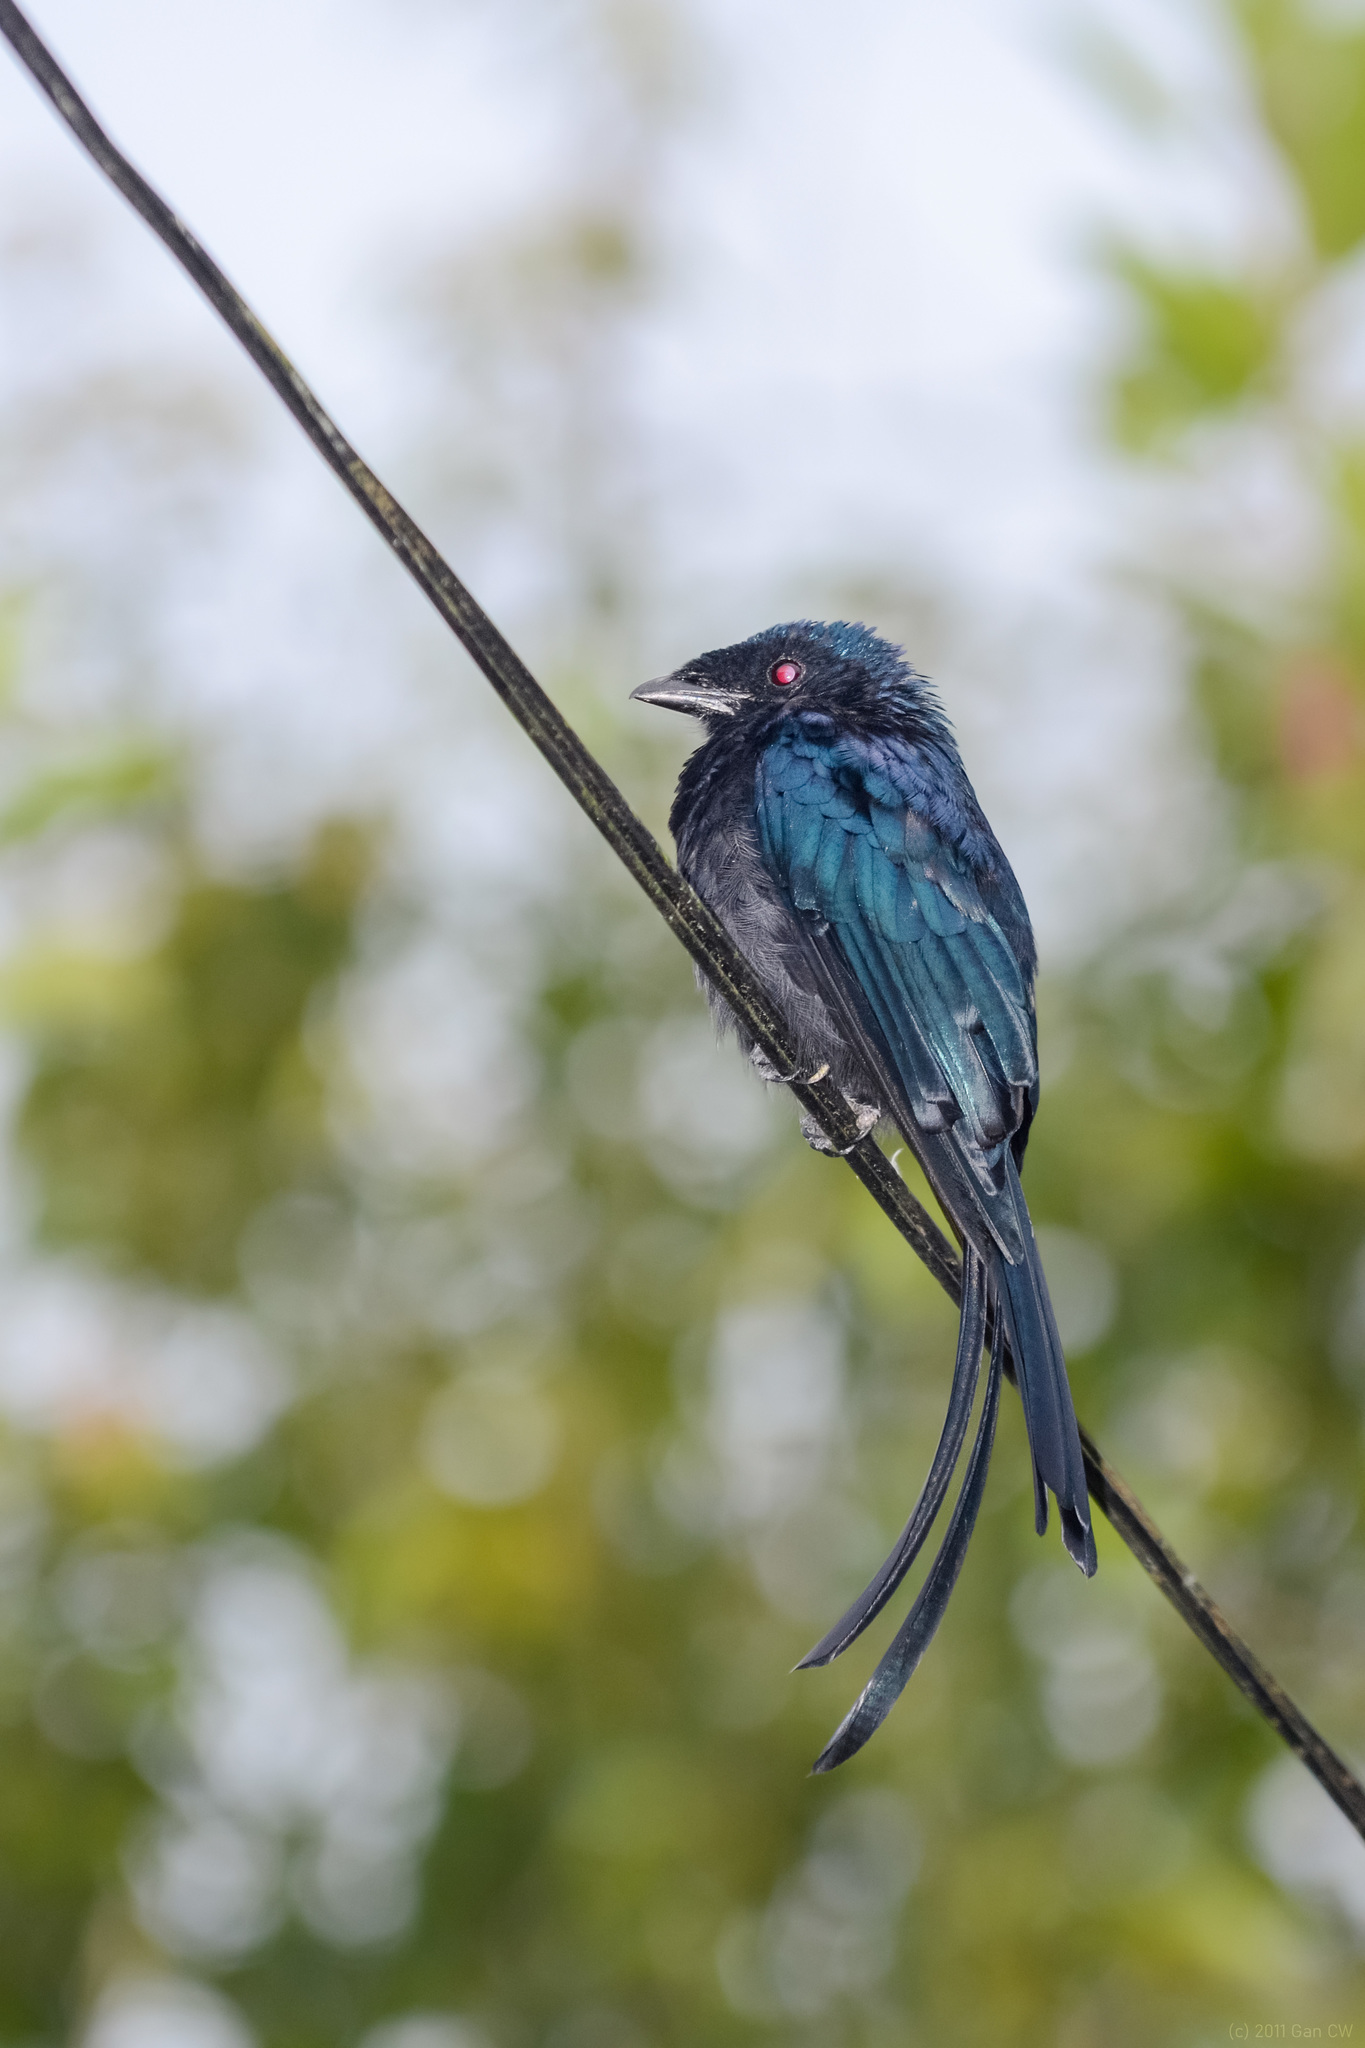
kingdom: Animalia
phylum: Chordata
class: Aves
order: Passeriformes
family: Dicruridae
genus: Dicrurus
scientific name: Dicrurus remifer
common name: Lesser racket-tailed drongo
